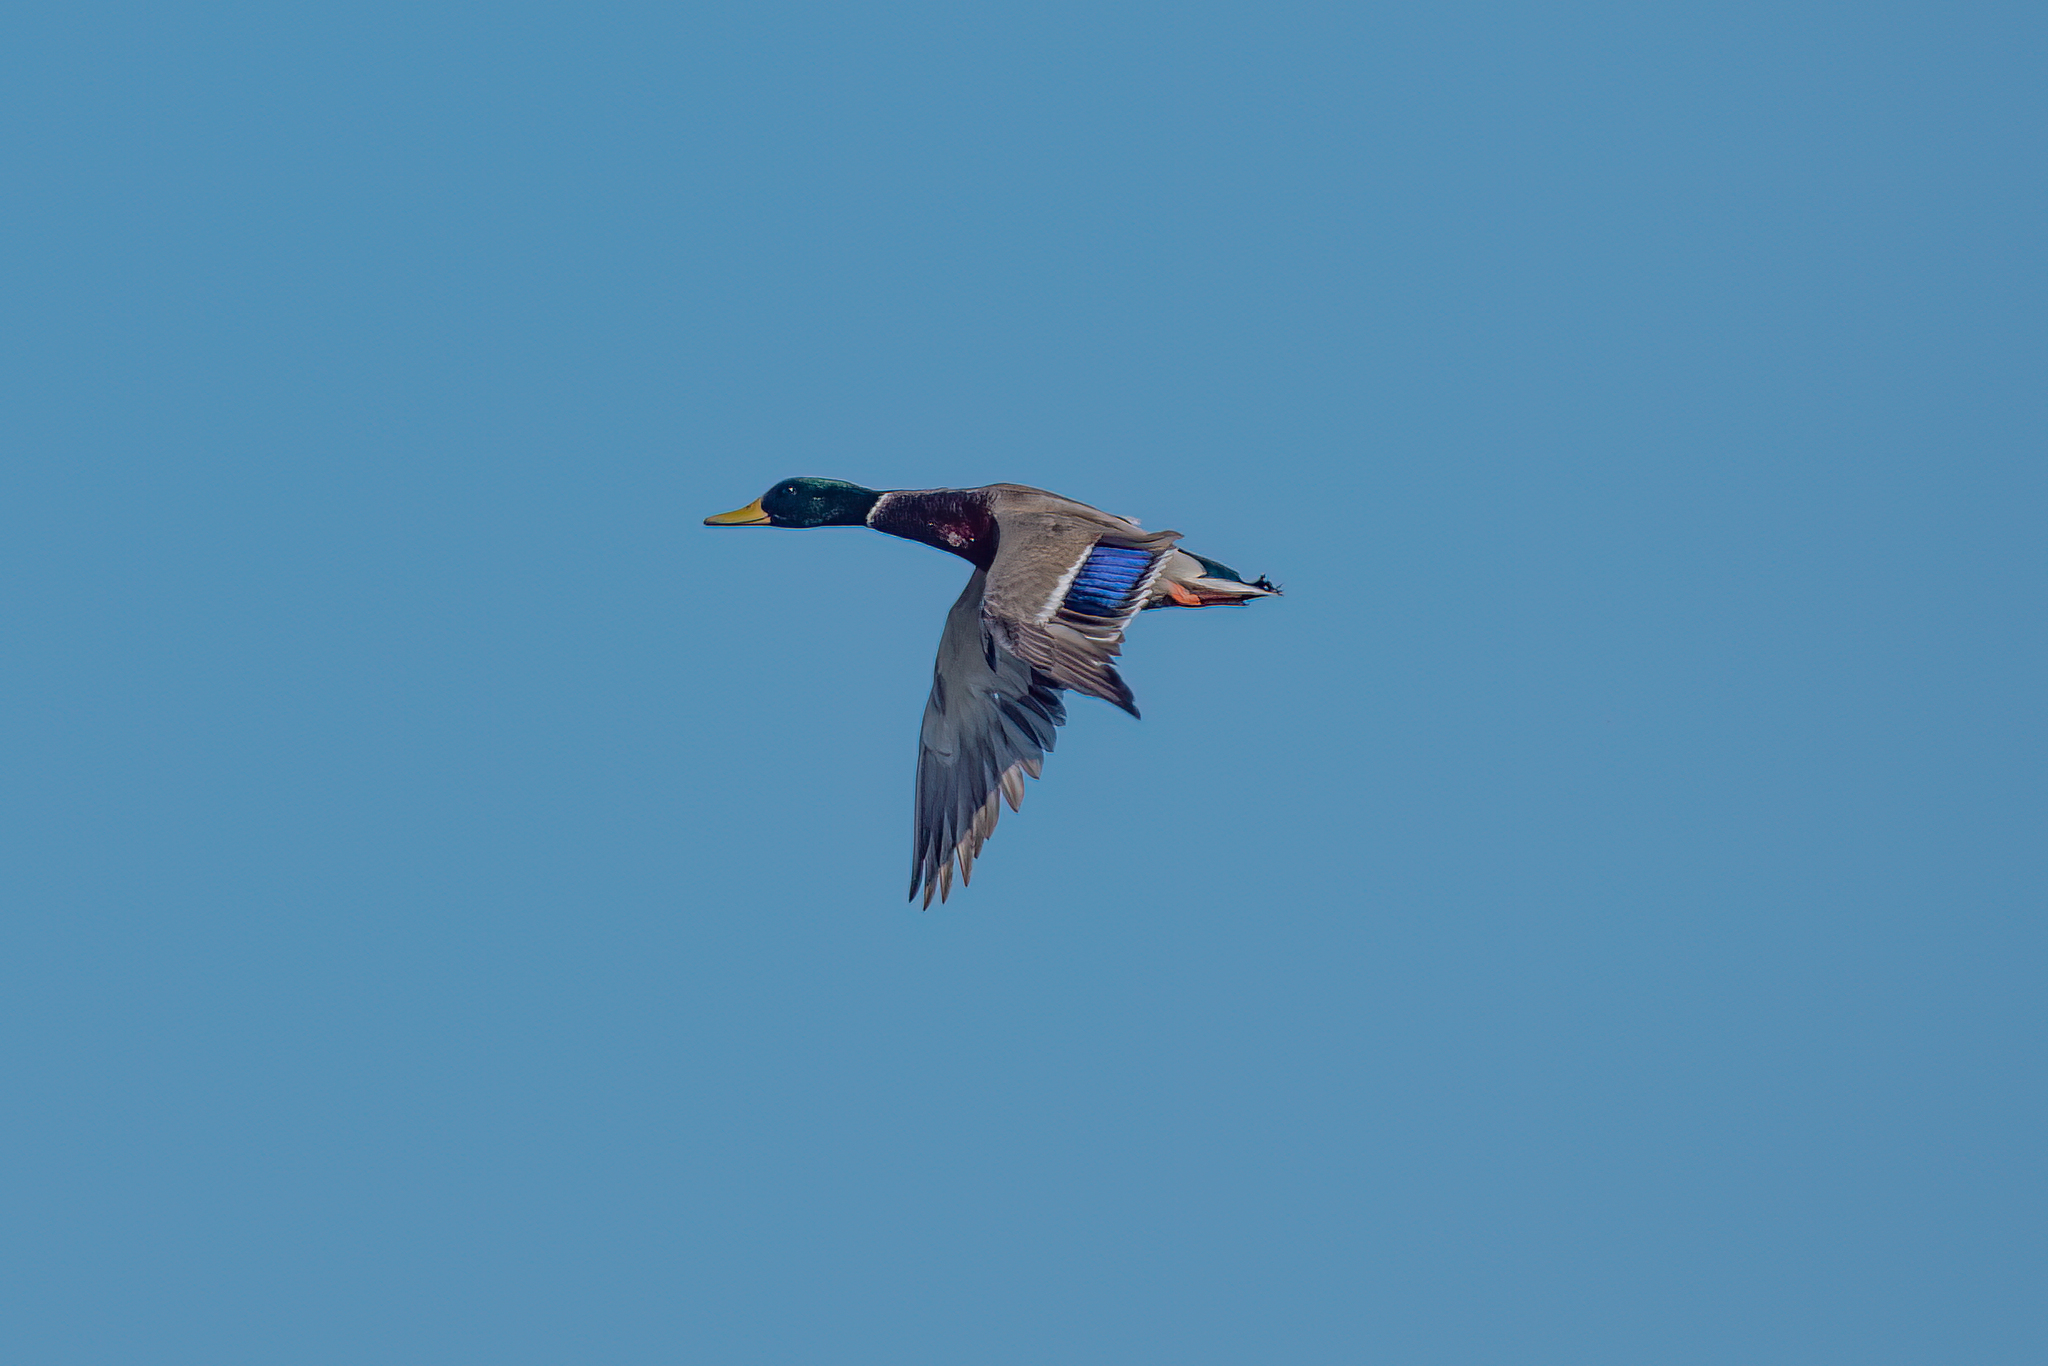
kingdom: Animalia
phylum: Chordata
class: Aves
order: Anseriformes
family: Anatidae
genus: Anas
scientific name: Anas platyrhynchos
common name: Mallard
